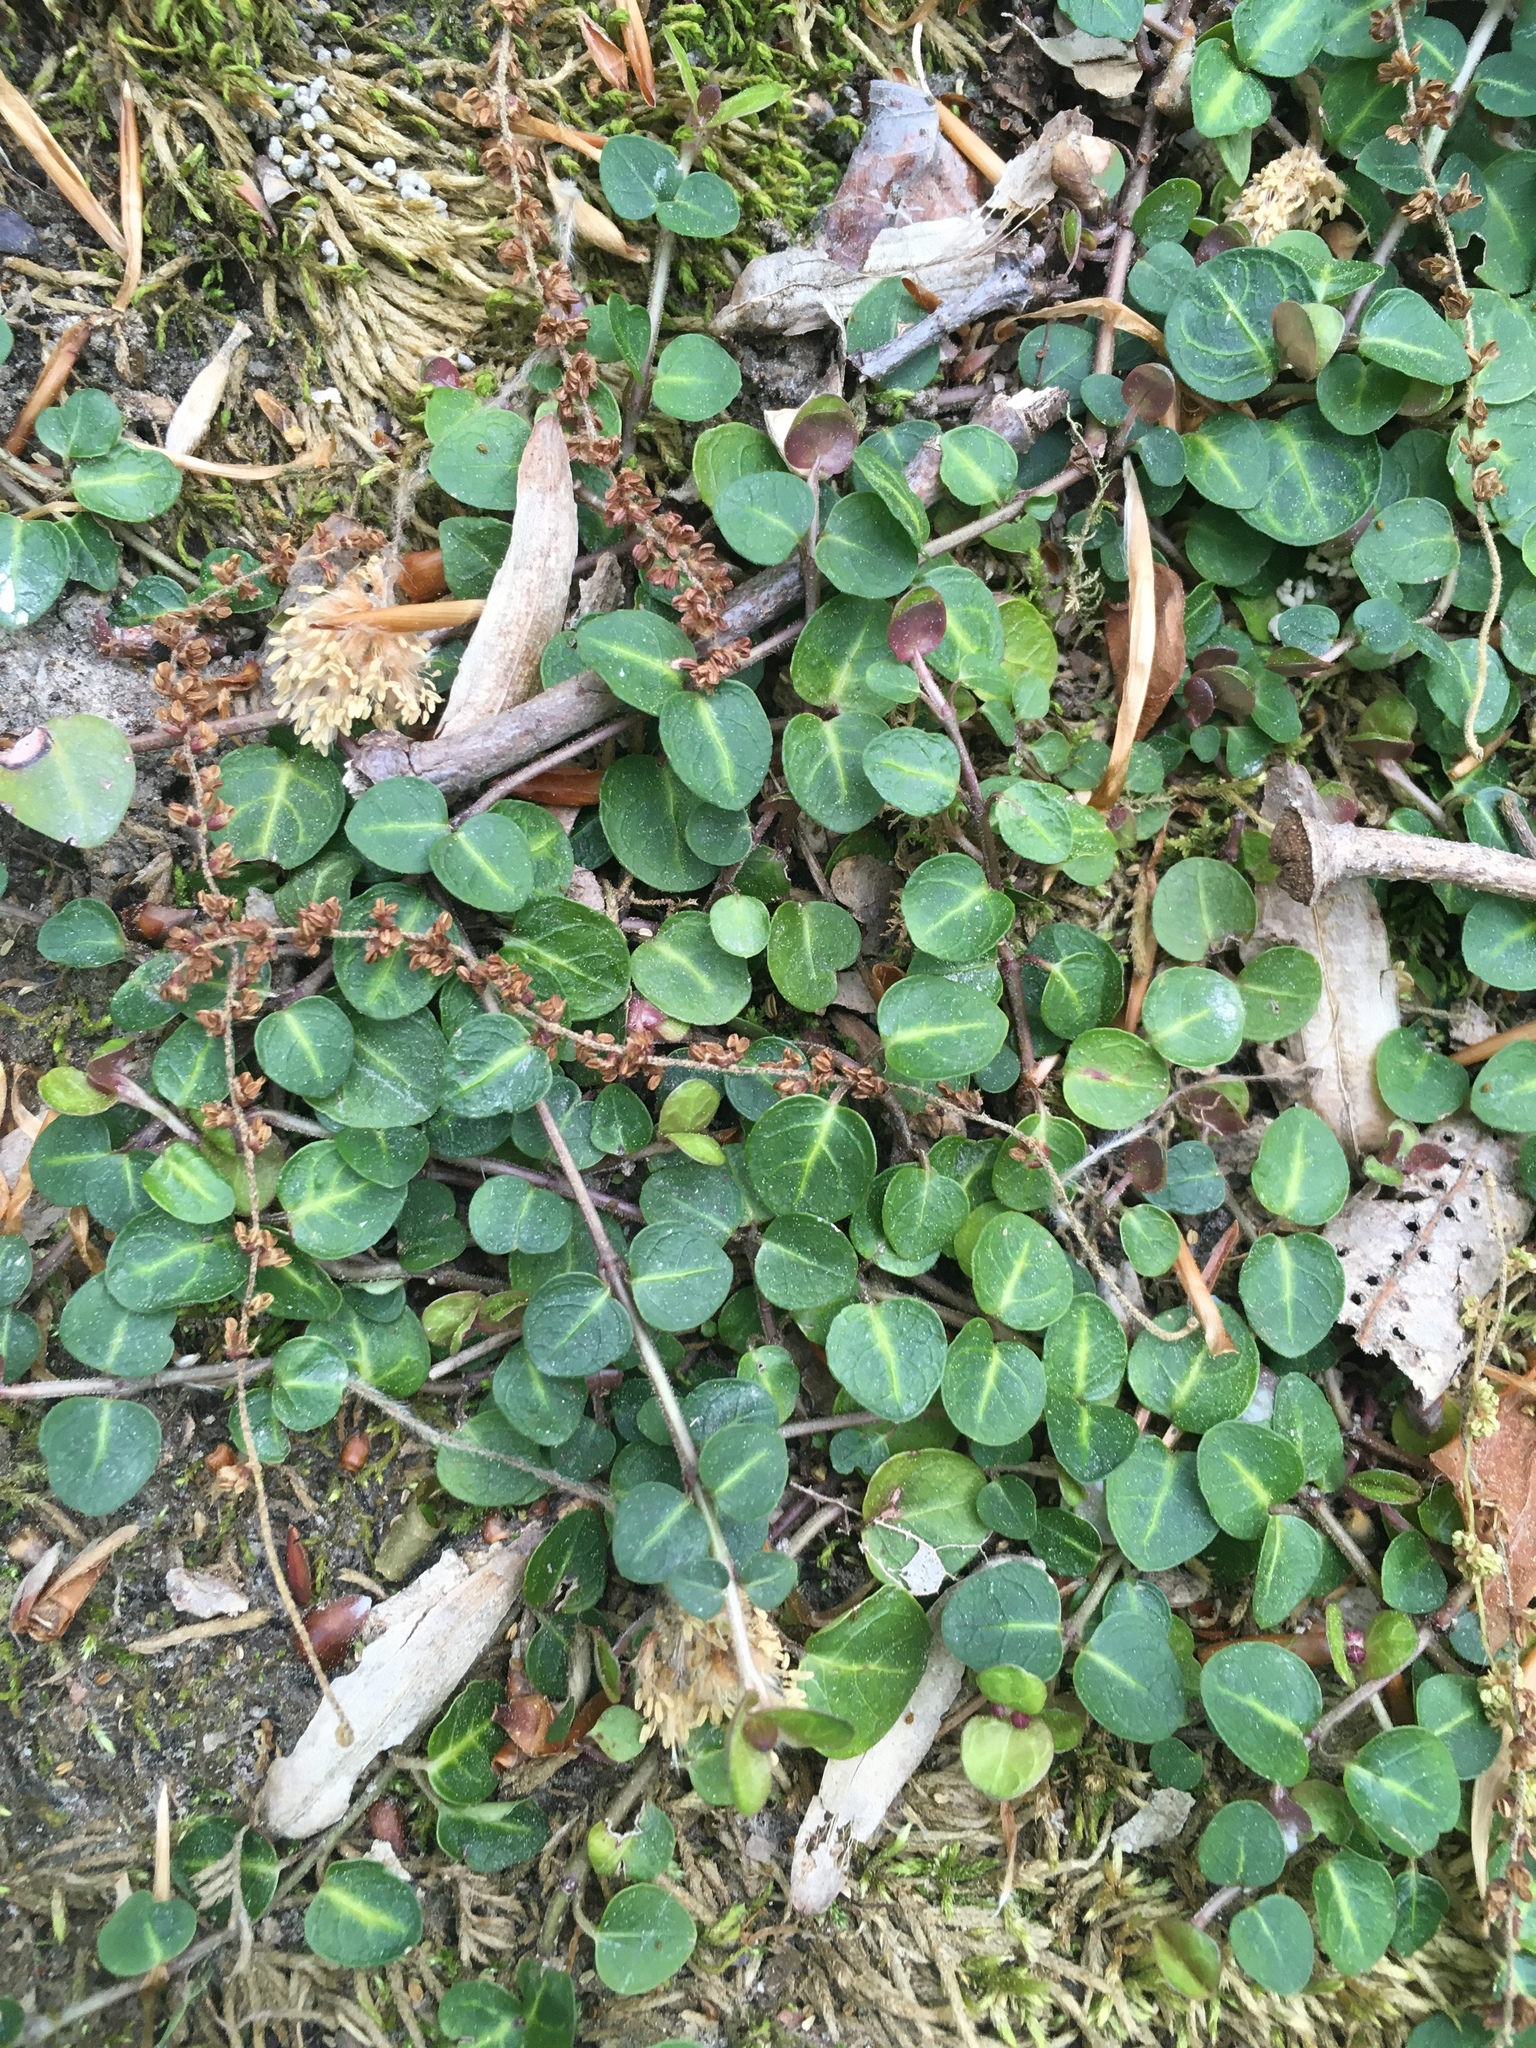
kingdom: Plantae
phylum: Tracheophyta
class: Magnoliopsida
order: Gentianales
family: Rubiaceae
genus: Mitchella
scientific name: Mitchella repens
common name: Partridge-berry
